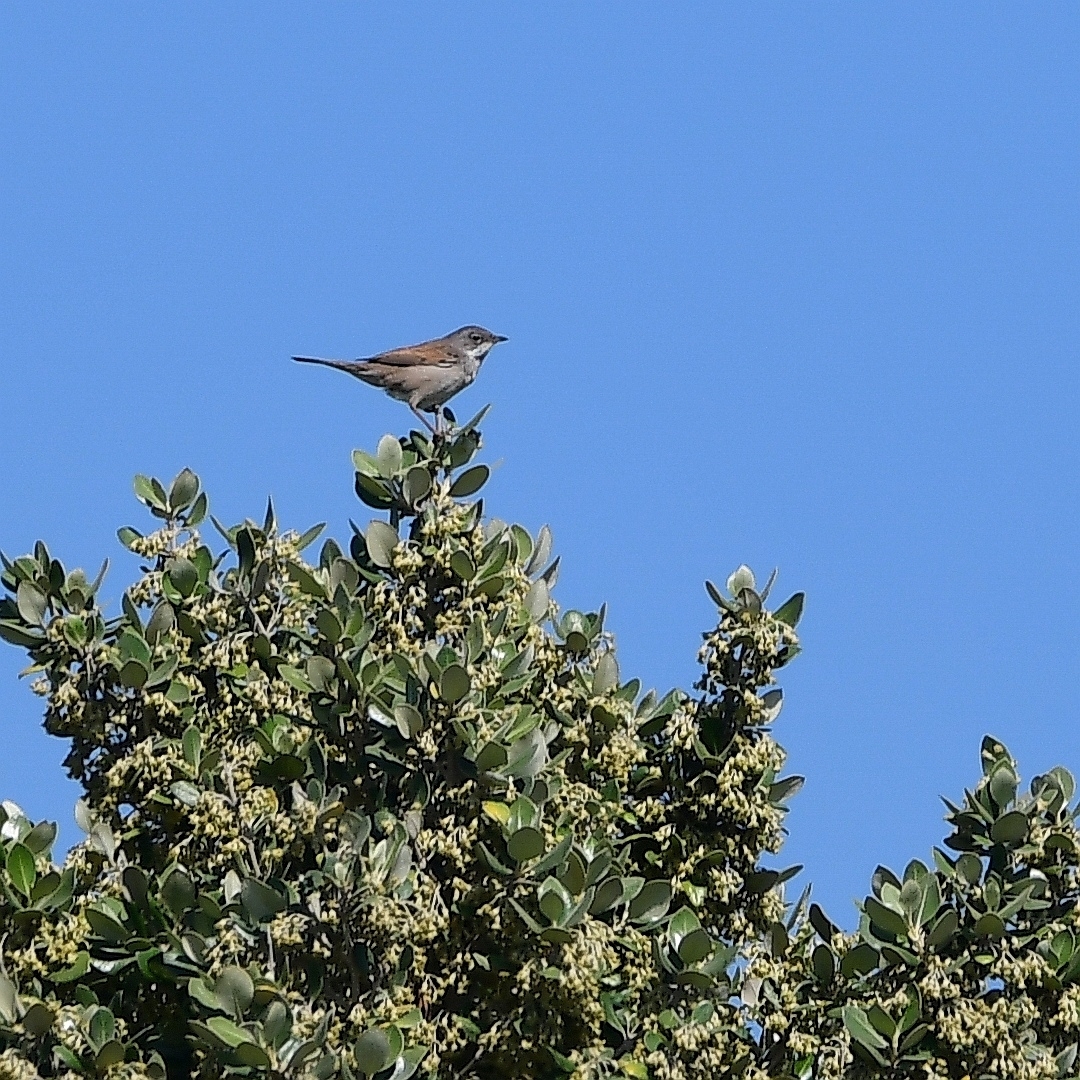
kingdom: Animalia
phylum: Chordata
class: Aves
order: Passeriformes
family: Sylviidae
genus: Sylvia
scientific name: Sylvia communis
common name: Common whitethroat
